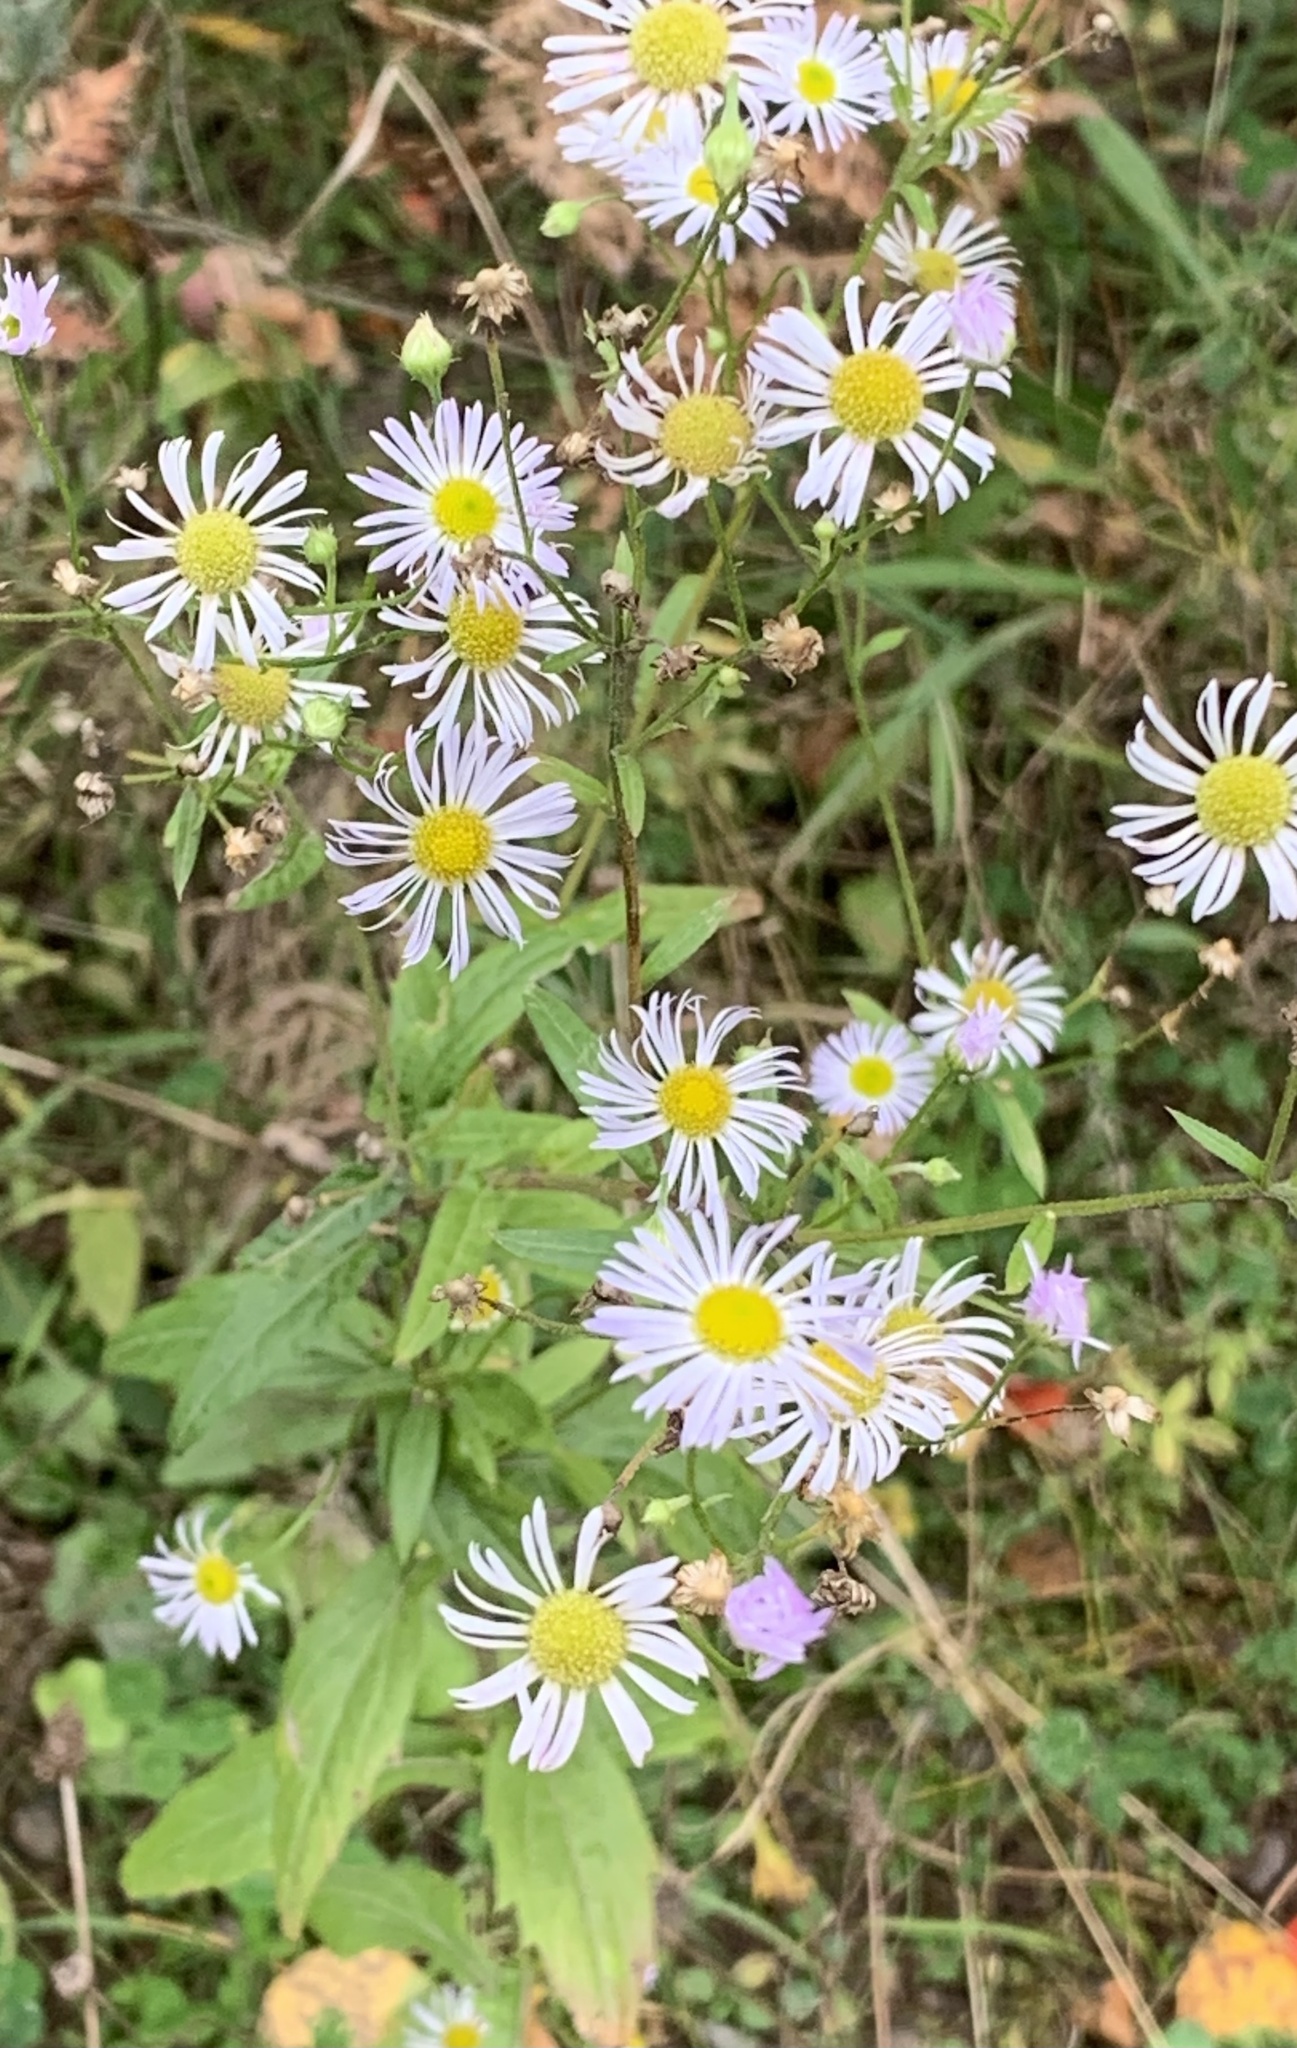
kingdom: Plantae
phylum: Tracheophyta
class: Magnoliopsida
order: Asterales
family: Asteraceae
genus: Erigeron
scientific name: Erigeron annuus
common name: Tall fleabane
